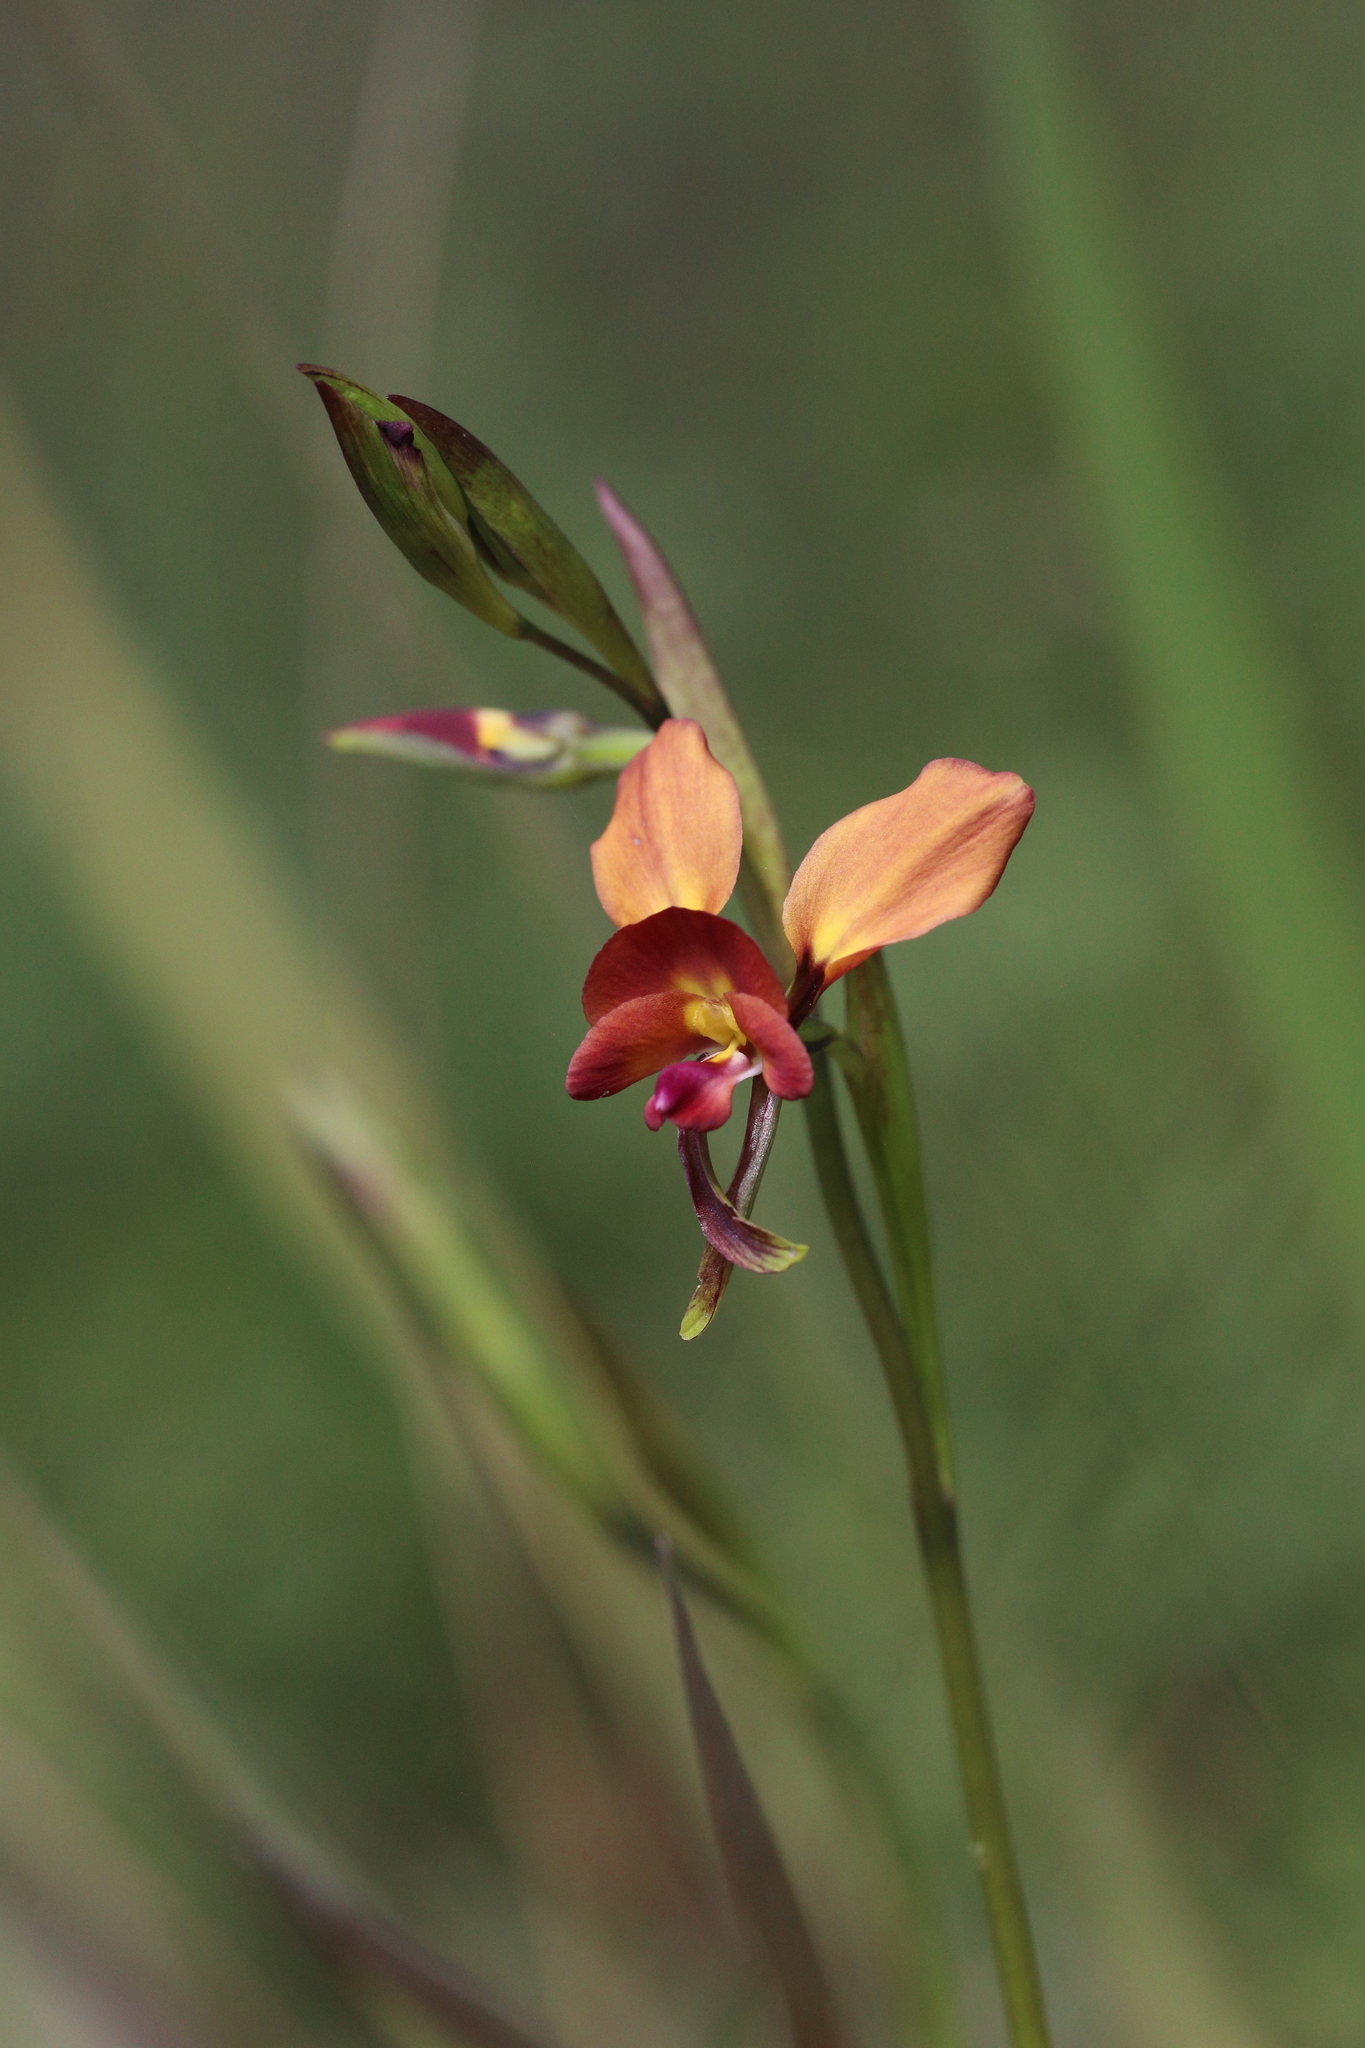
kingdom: Plantae
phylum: Tracheophyta
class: Liliopsida
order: Asparagales
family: Orchidaceae
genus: Diuris
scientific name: Diuris jonesii
